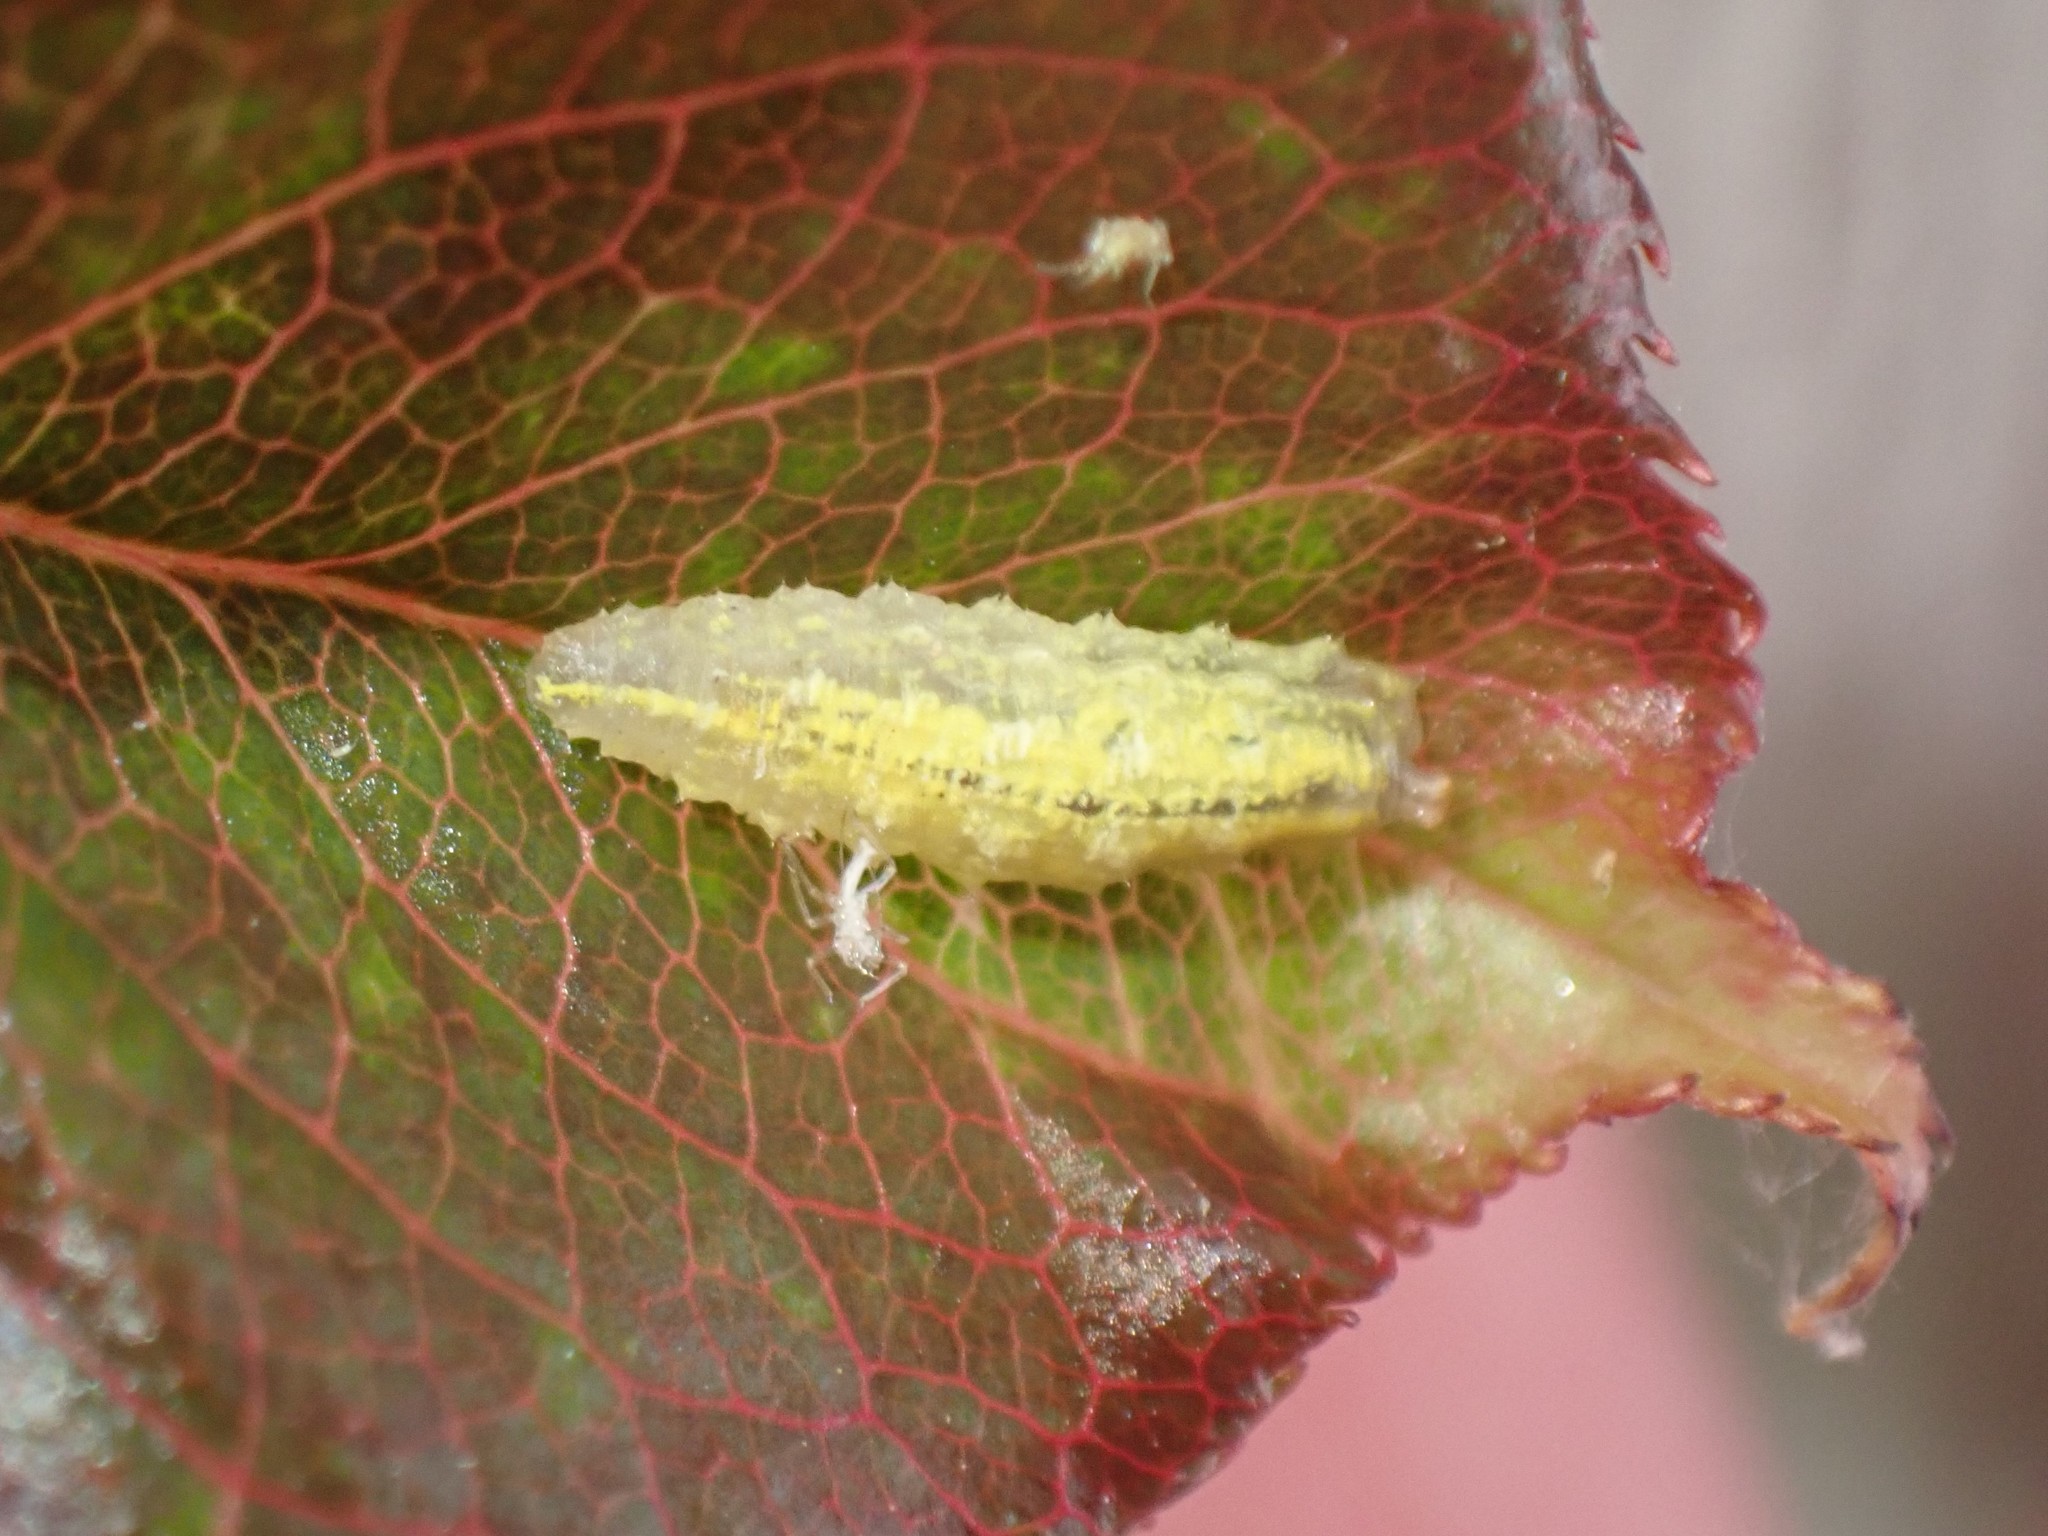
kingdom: Animalia
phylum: Arthropoda
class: Insecta
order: Diptera
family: Syrphidae
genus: Syrphus
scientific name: Syrphus
